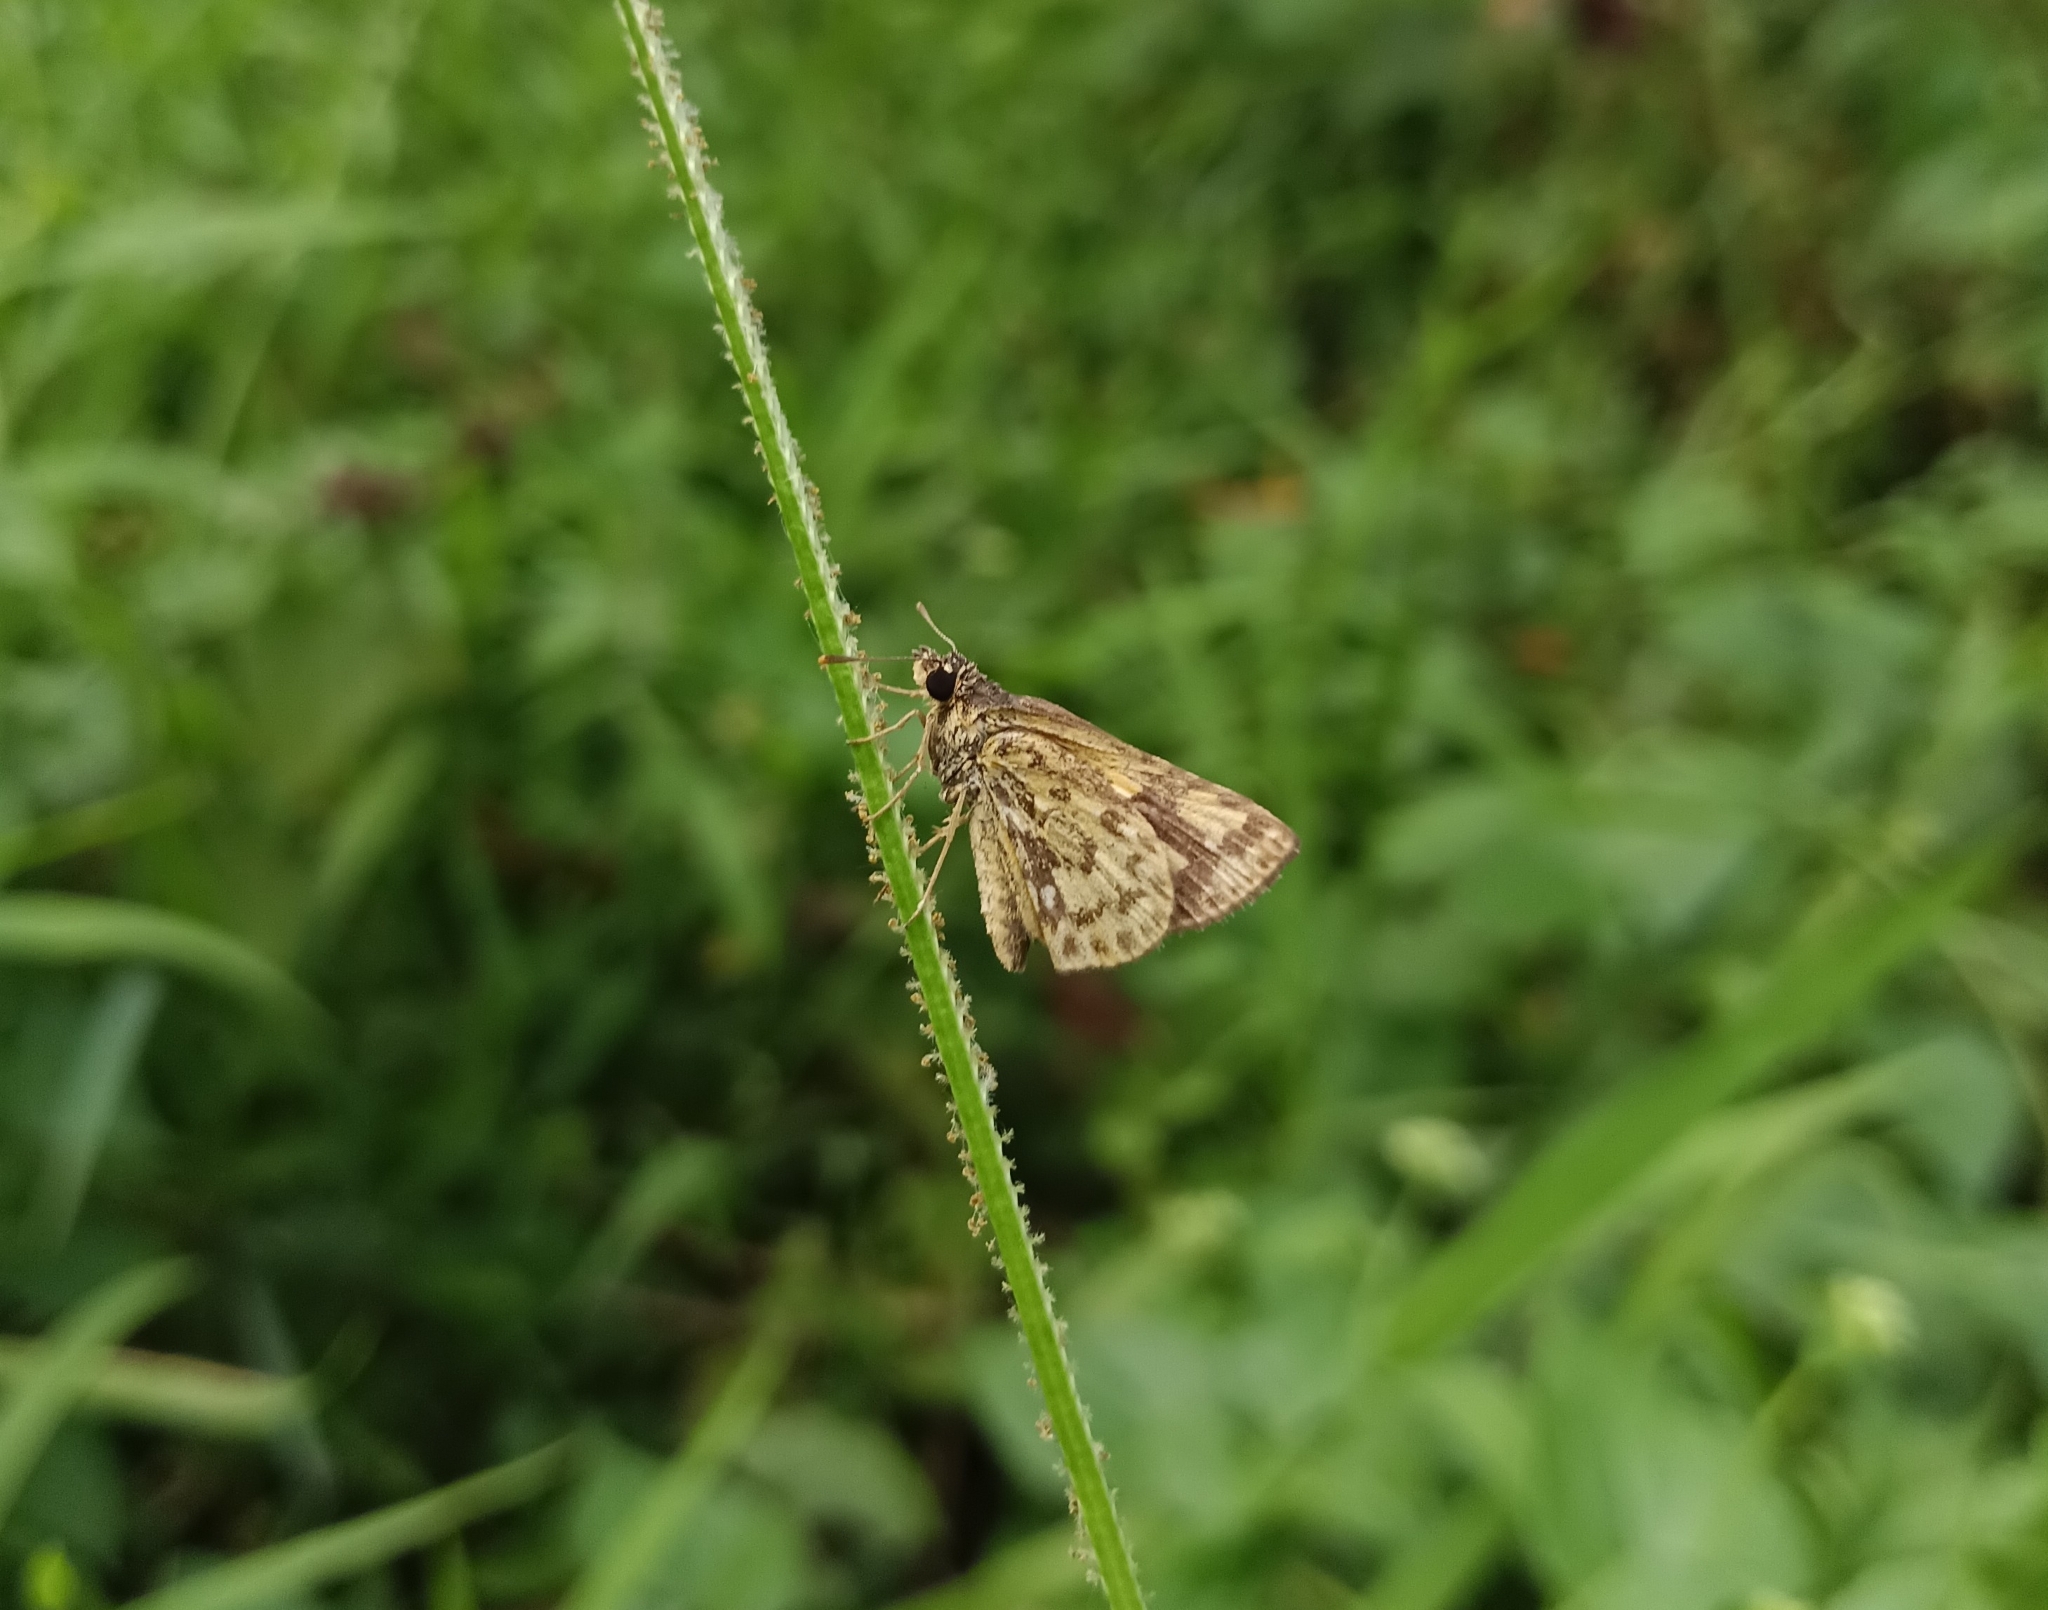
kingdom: Animalia
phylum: Arthropoda
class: Insecta
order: Lepidoptera
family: Hesperiidae
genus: Ampittia
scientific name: Ampittia dioscorides
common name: Common bush hopper
